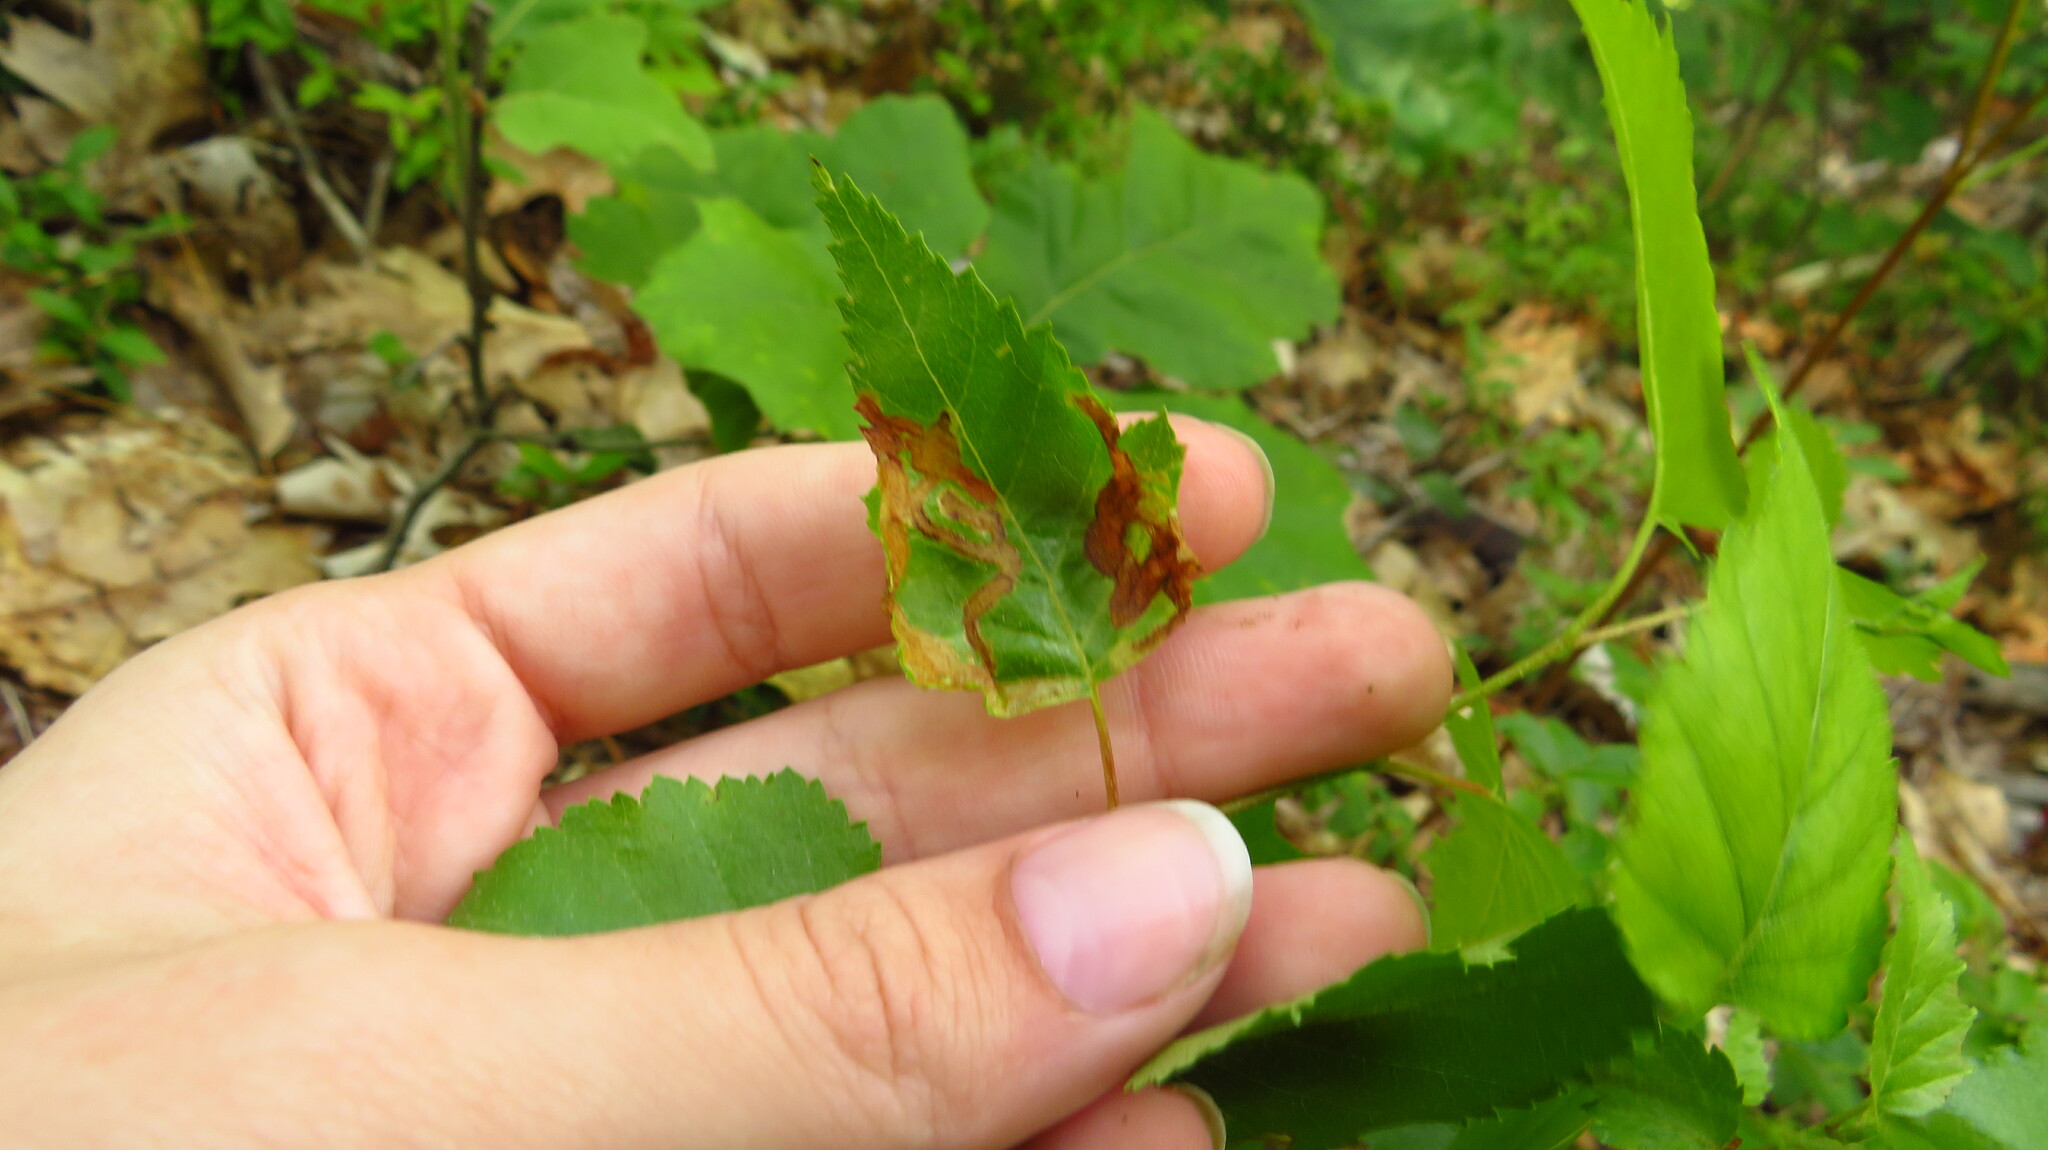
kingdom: Animalia
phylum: Arthropoda
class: Insecta
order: Diptera
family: Agromyzidae
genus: Agromyza
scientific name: Agromyza alnibetulae
